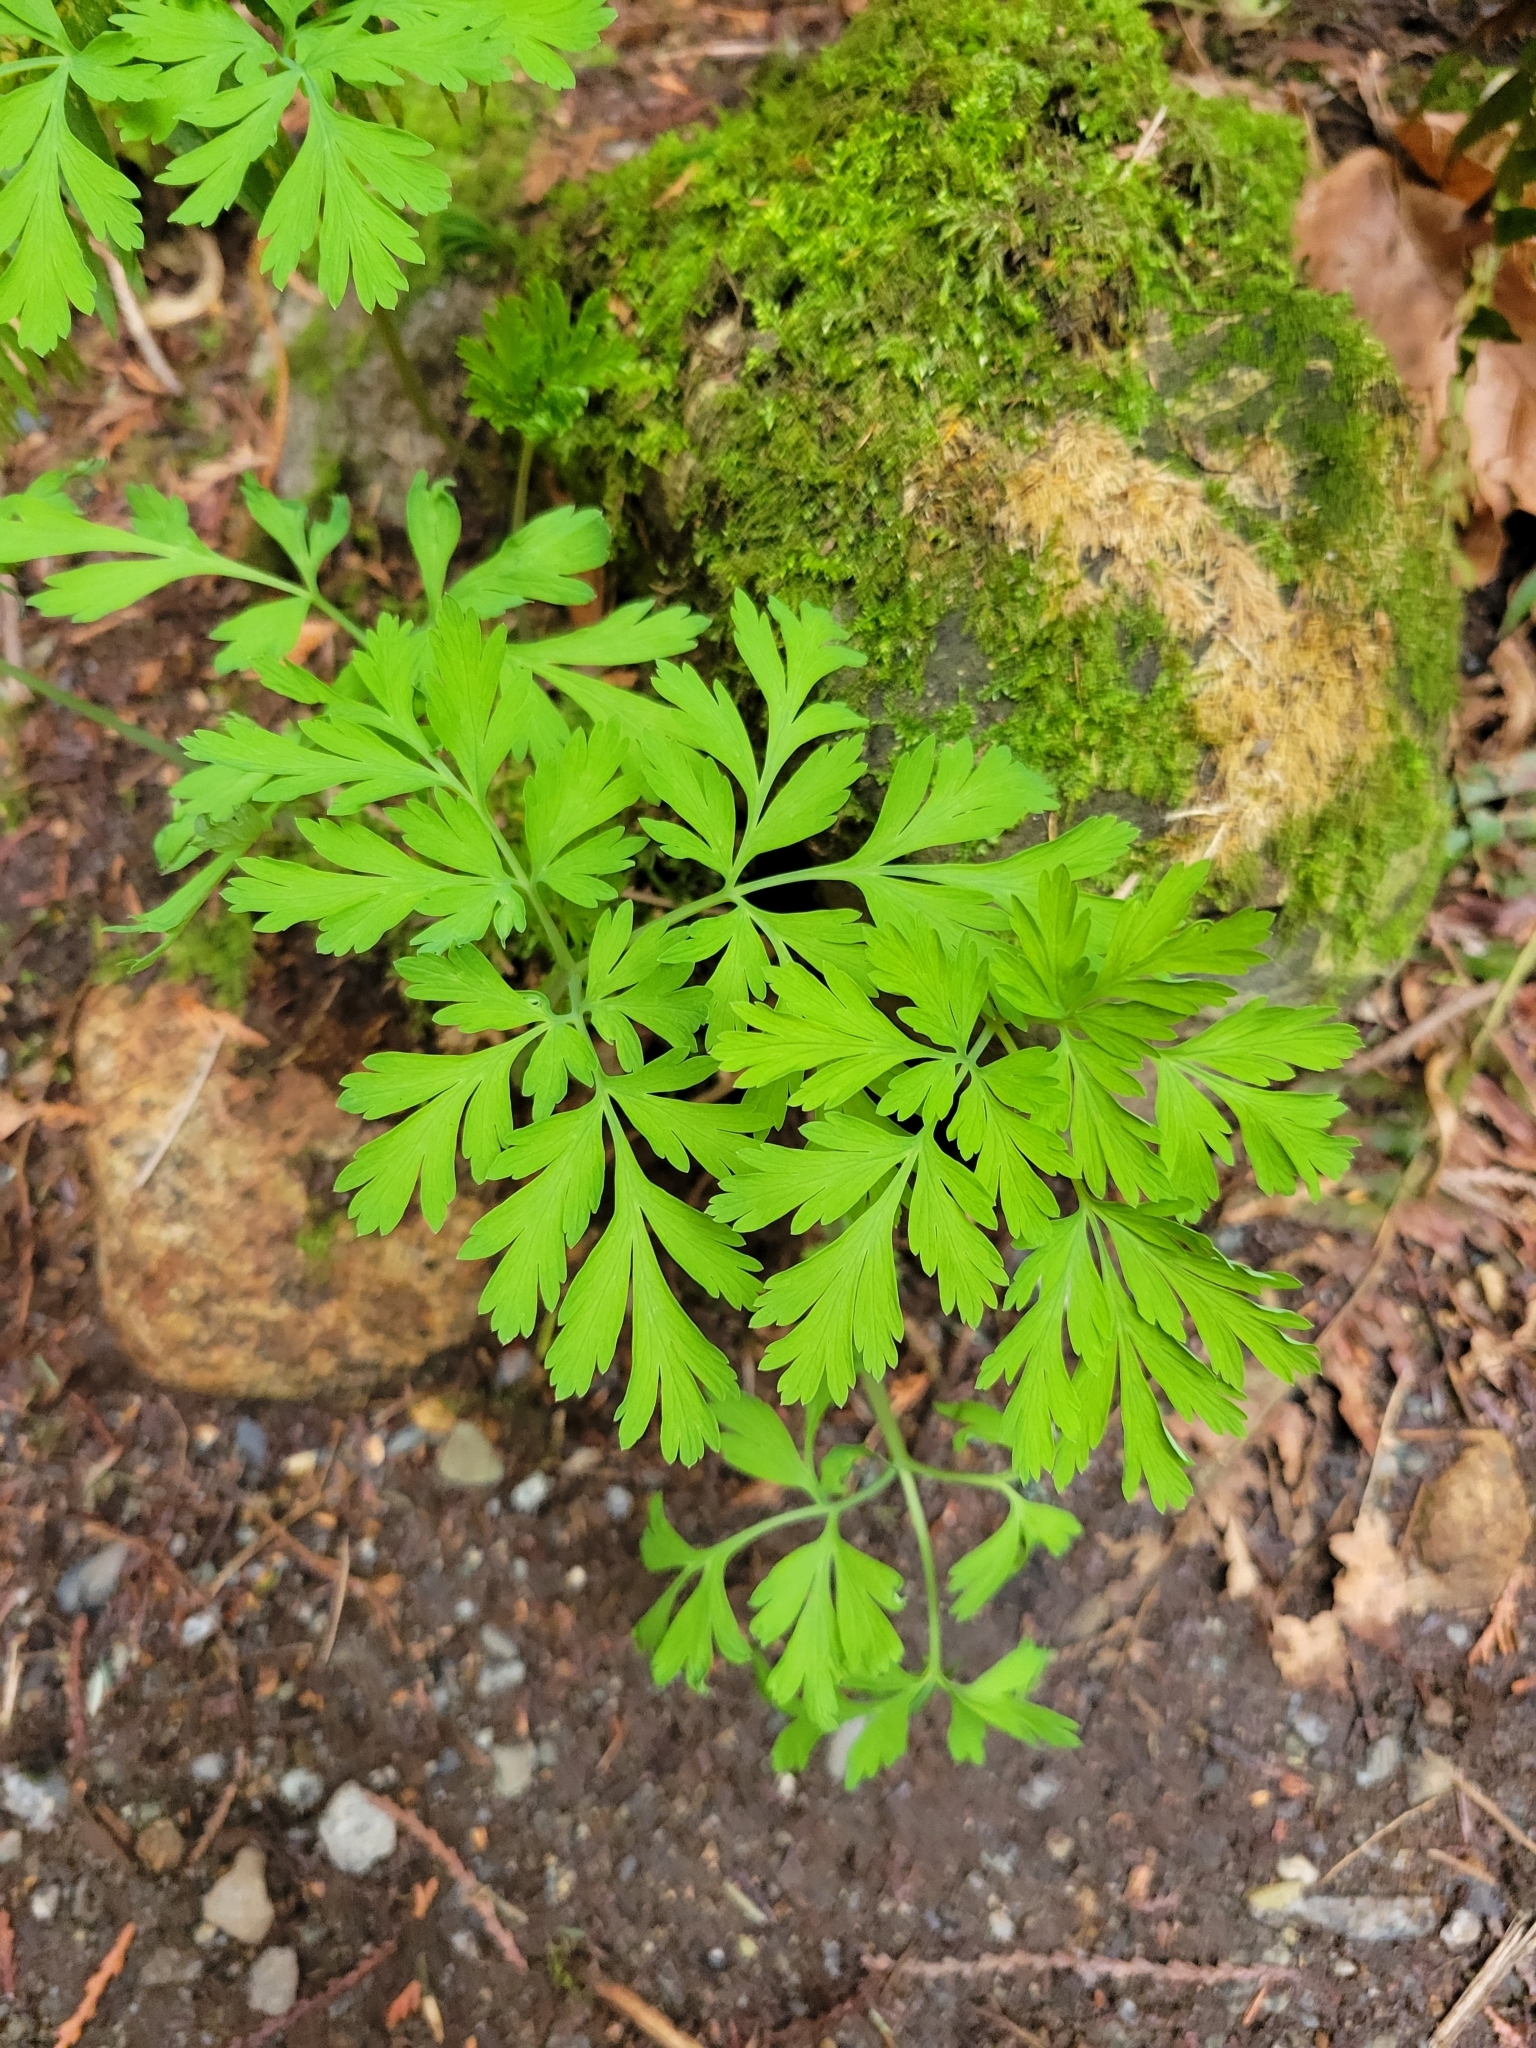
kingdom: Plantae
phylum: Tracheophyta
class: Magnoliopsida
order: Ranunculales
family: Papaveraceae
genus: Dicentra
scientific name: Dicentra formosa
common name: Bleeding-heart
